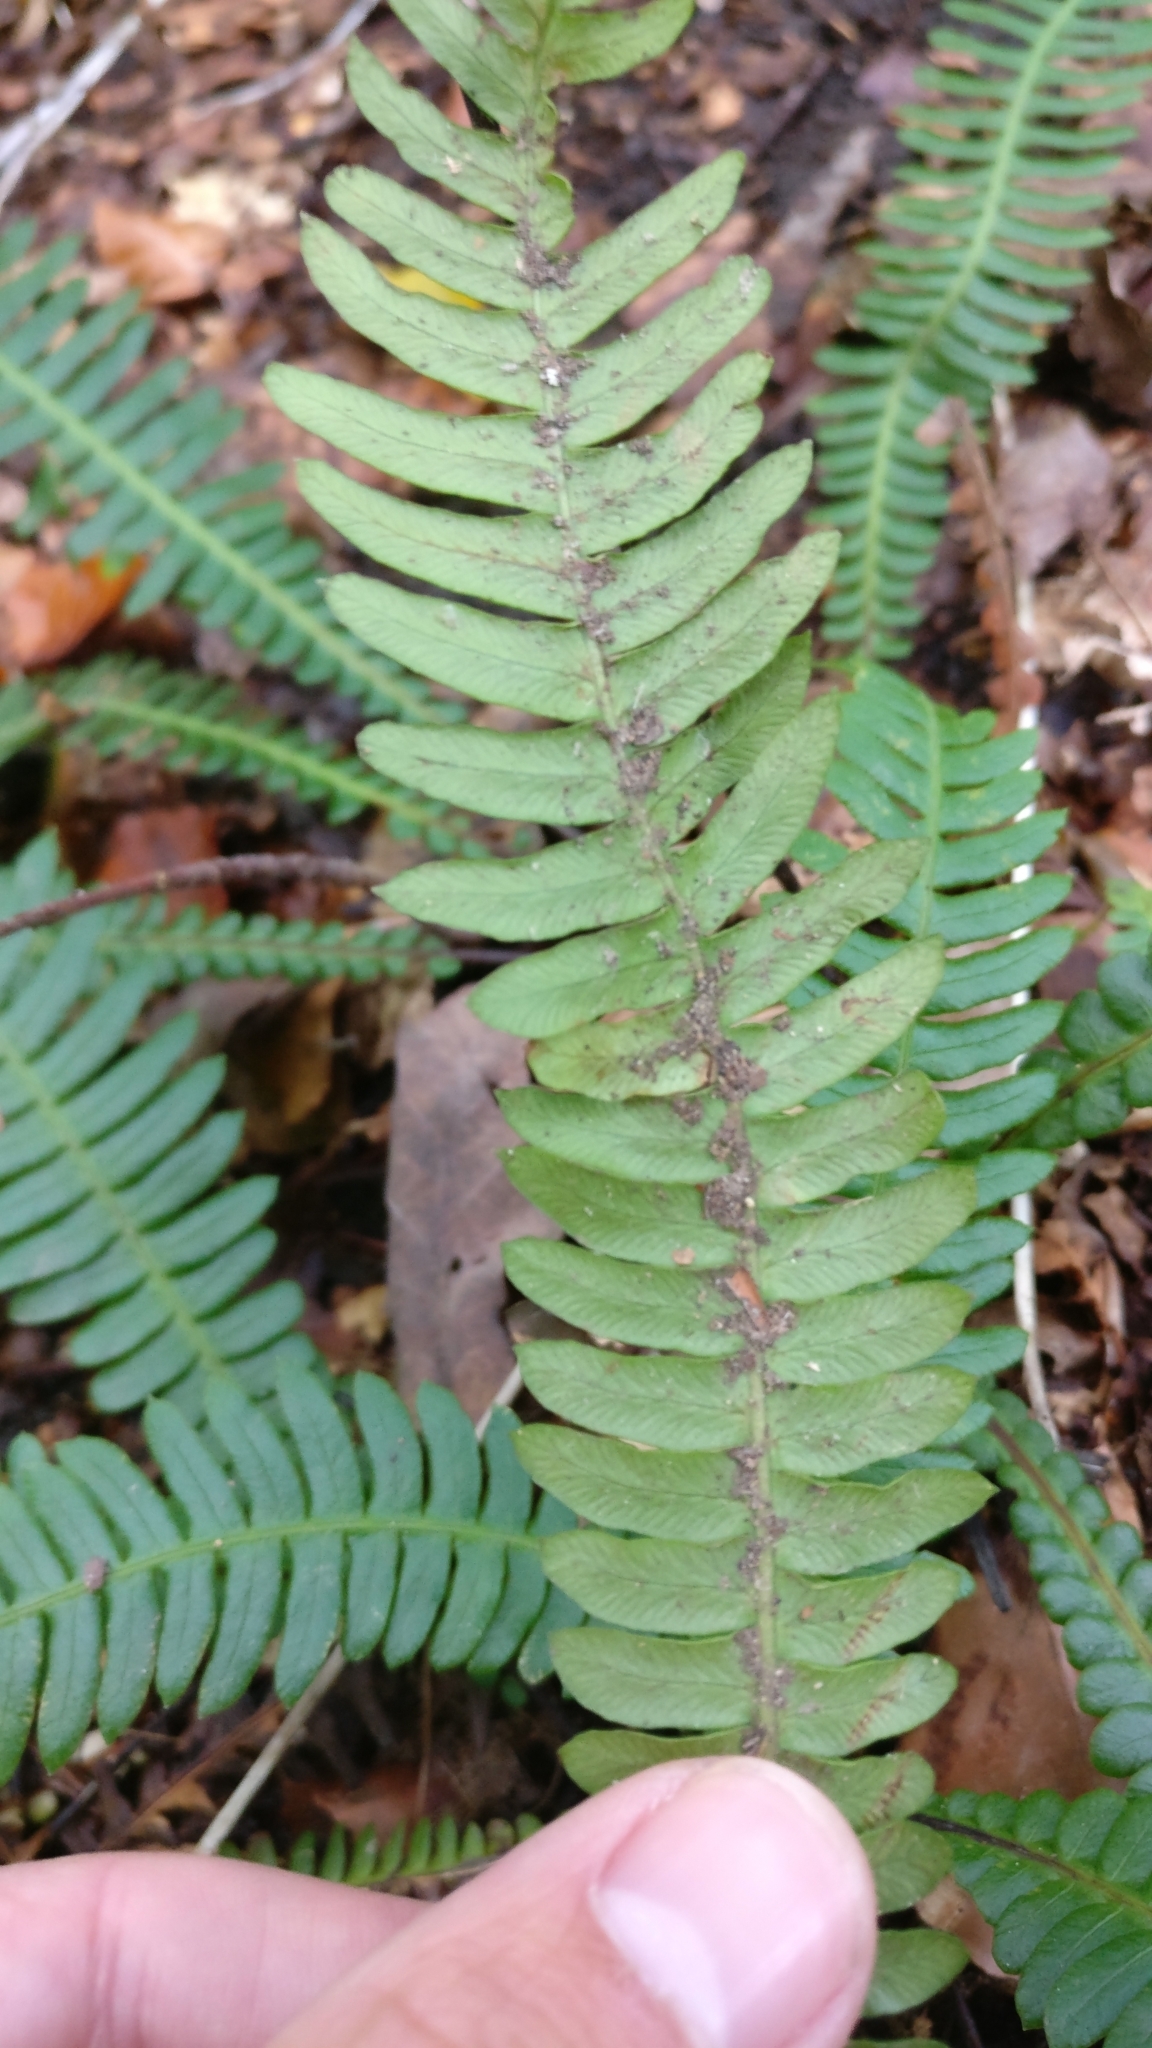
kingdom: Plantae
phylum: Tracheophyta
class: Polypodiopsida
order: Polypodiales
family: Blechnaceae
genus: Struthiopteris
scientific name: Struthiopteris spicant
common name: Deer fern
